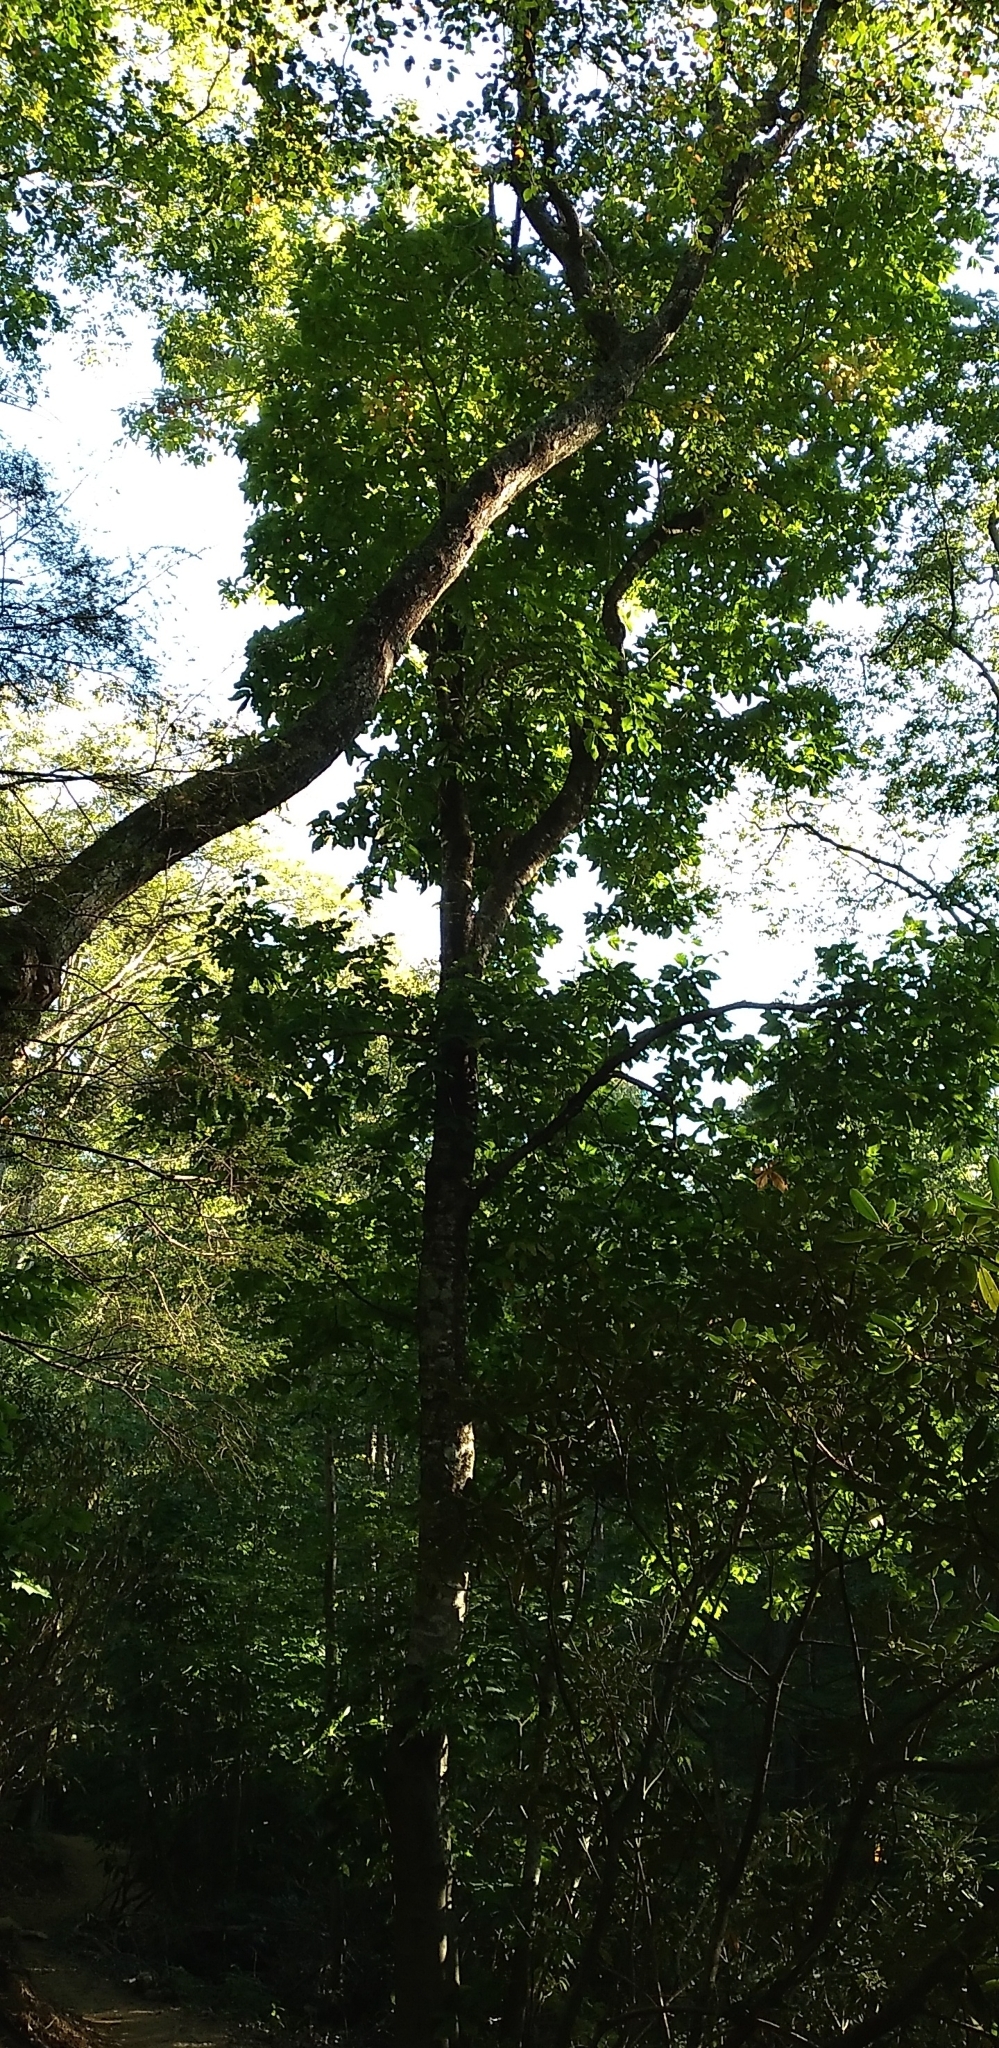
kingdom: Plantae
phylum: Tracheophyta
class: Magnoliopsida
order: Magnoliales
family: Magnoliaceae
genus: Magnolia
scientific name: Magnolia fraseri
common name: Fraser's magnolia
